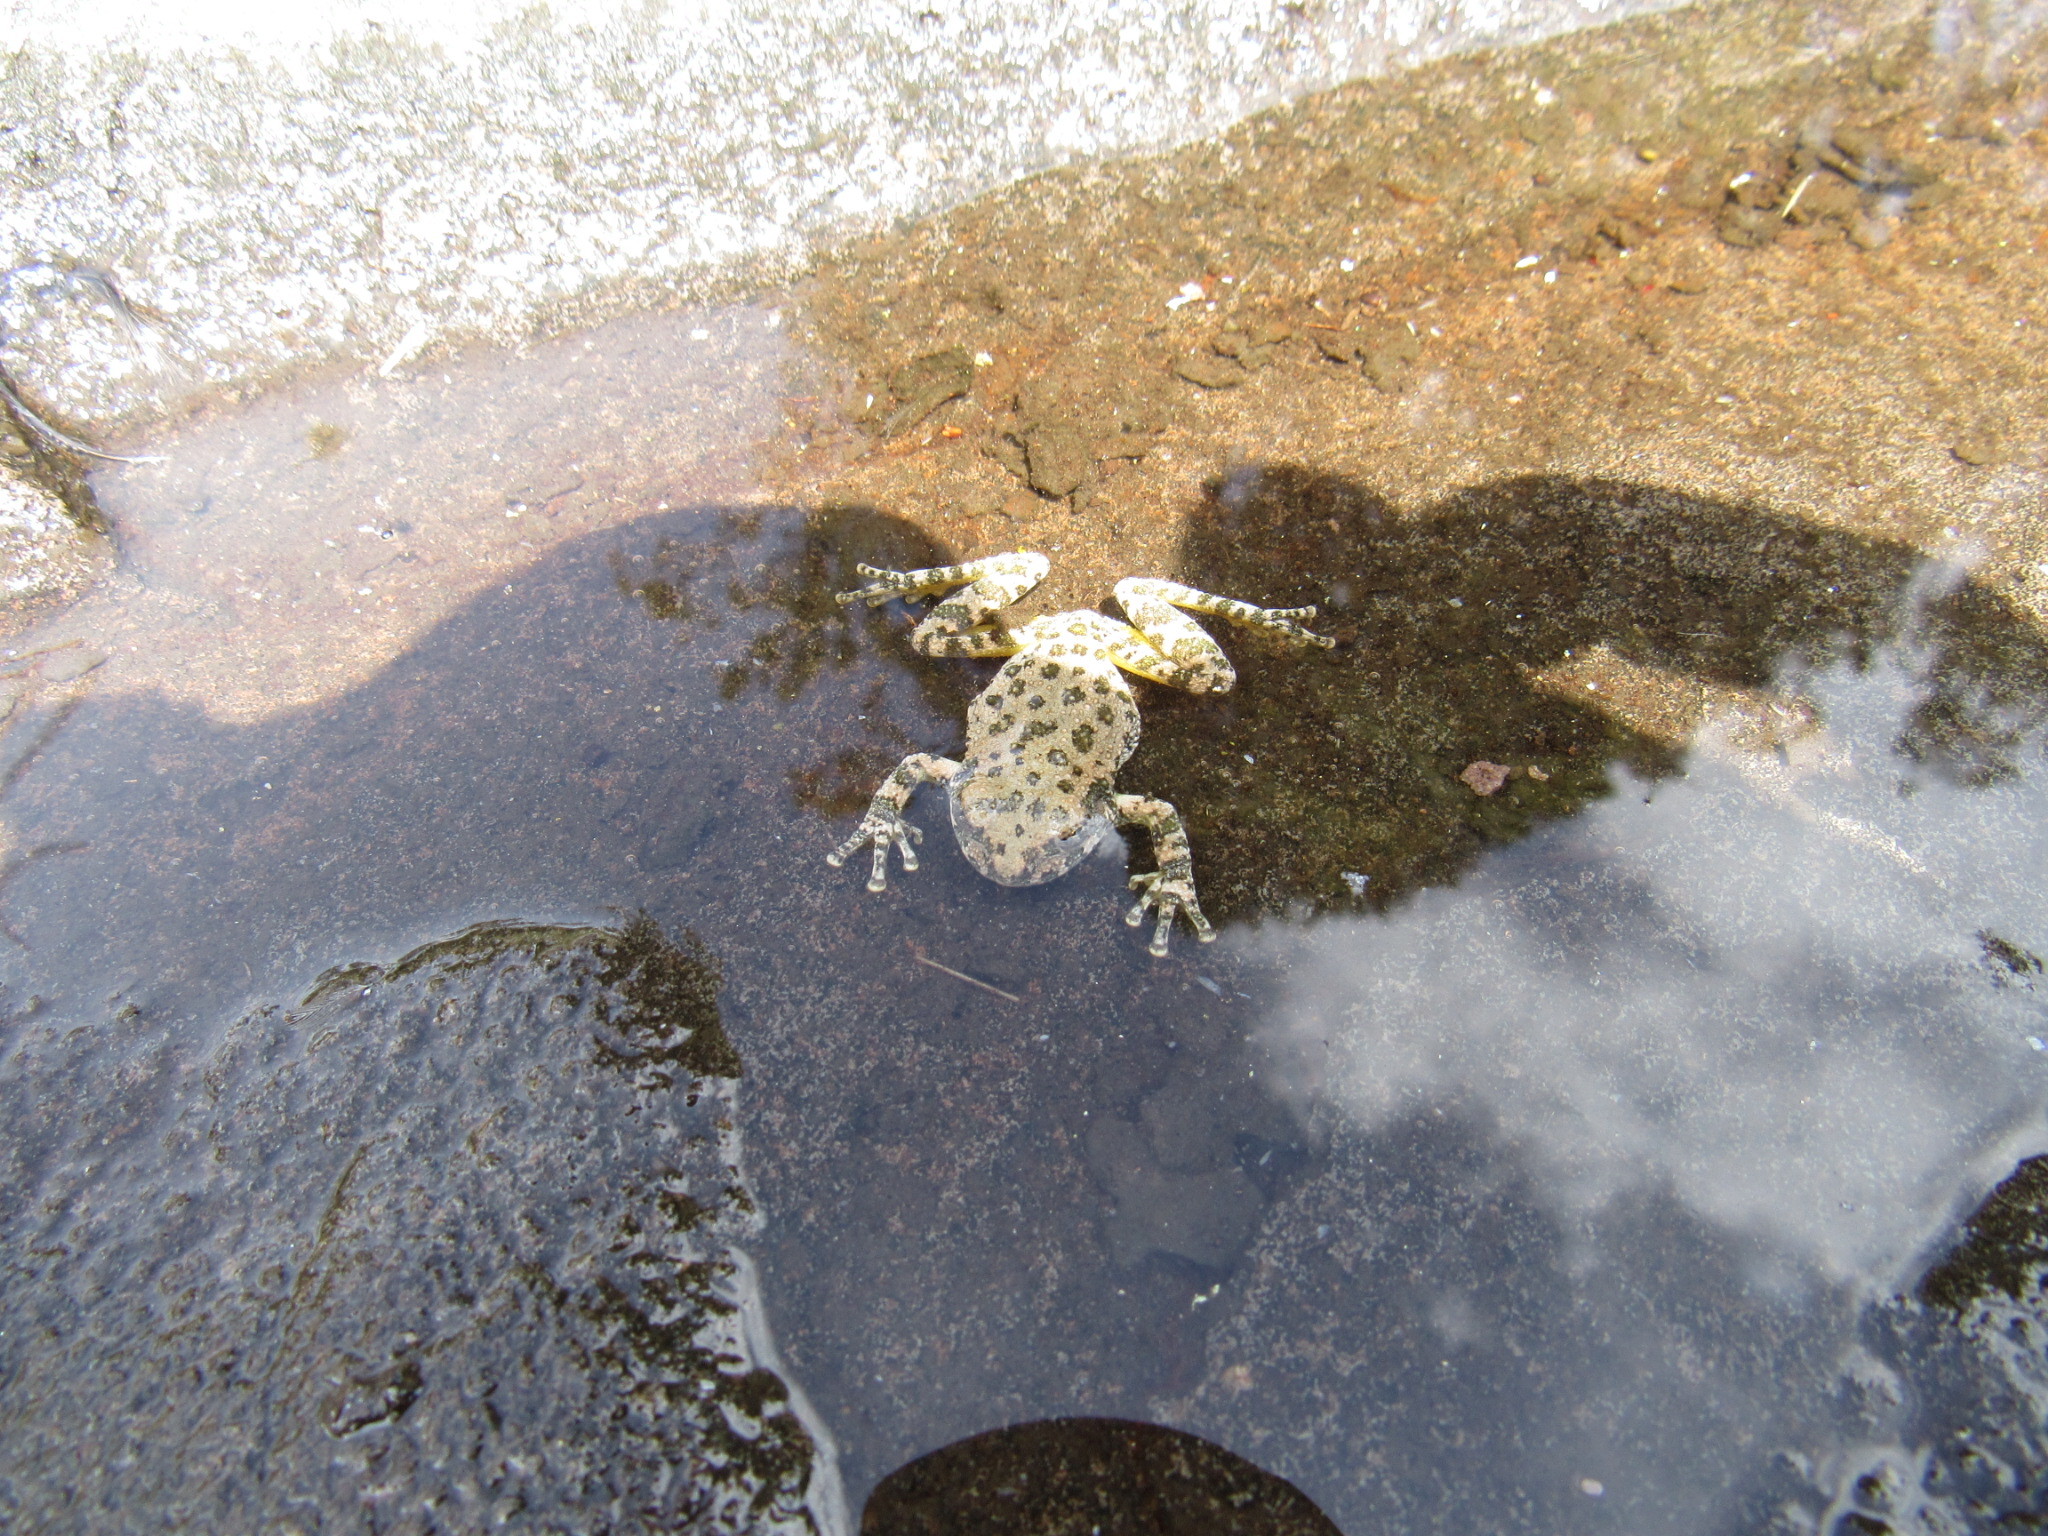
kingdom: Animalia
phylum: Chordata
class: Amphibia
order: Anura
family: Hylidae
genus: Dryophytes
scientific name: Dryophytes arenicolor
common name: Canyon treefrog
